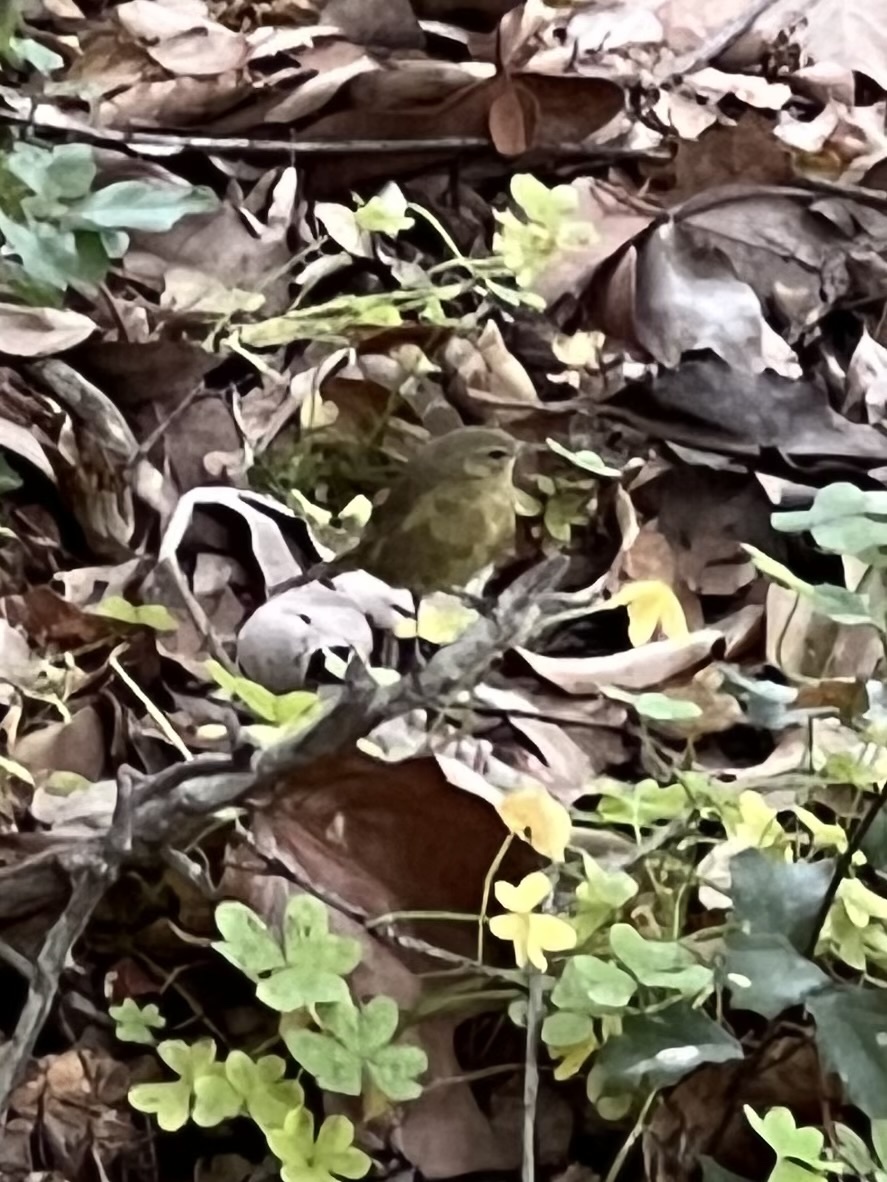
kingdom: Animalia
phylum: Chordata
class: Aves
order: Passeriformes
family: Parulidae
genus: Leiothlypis
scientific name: Leiothlypis celata
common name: Orange-crowned warbler
